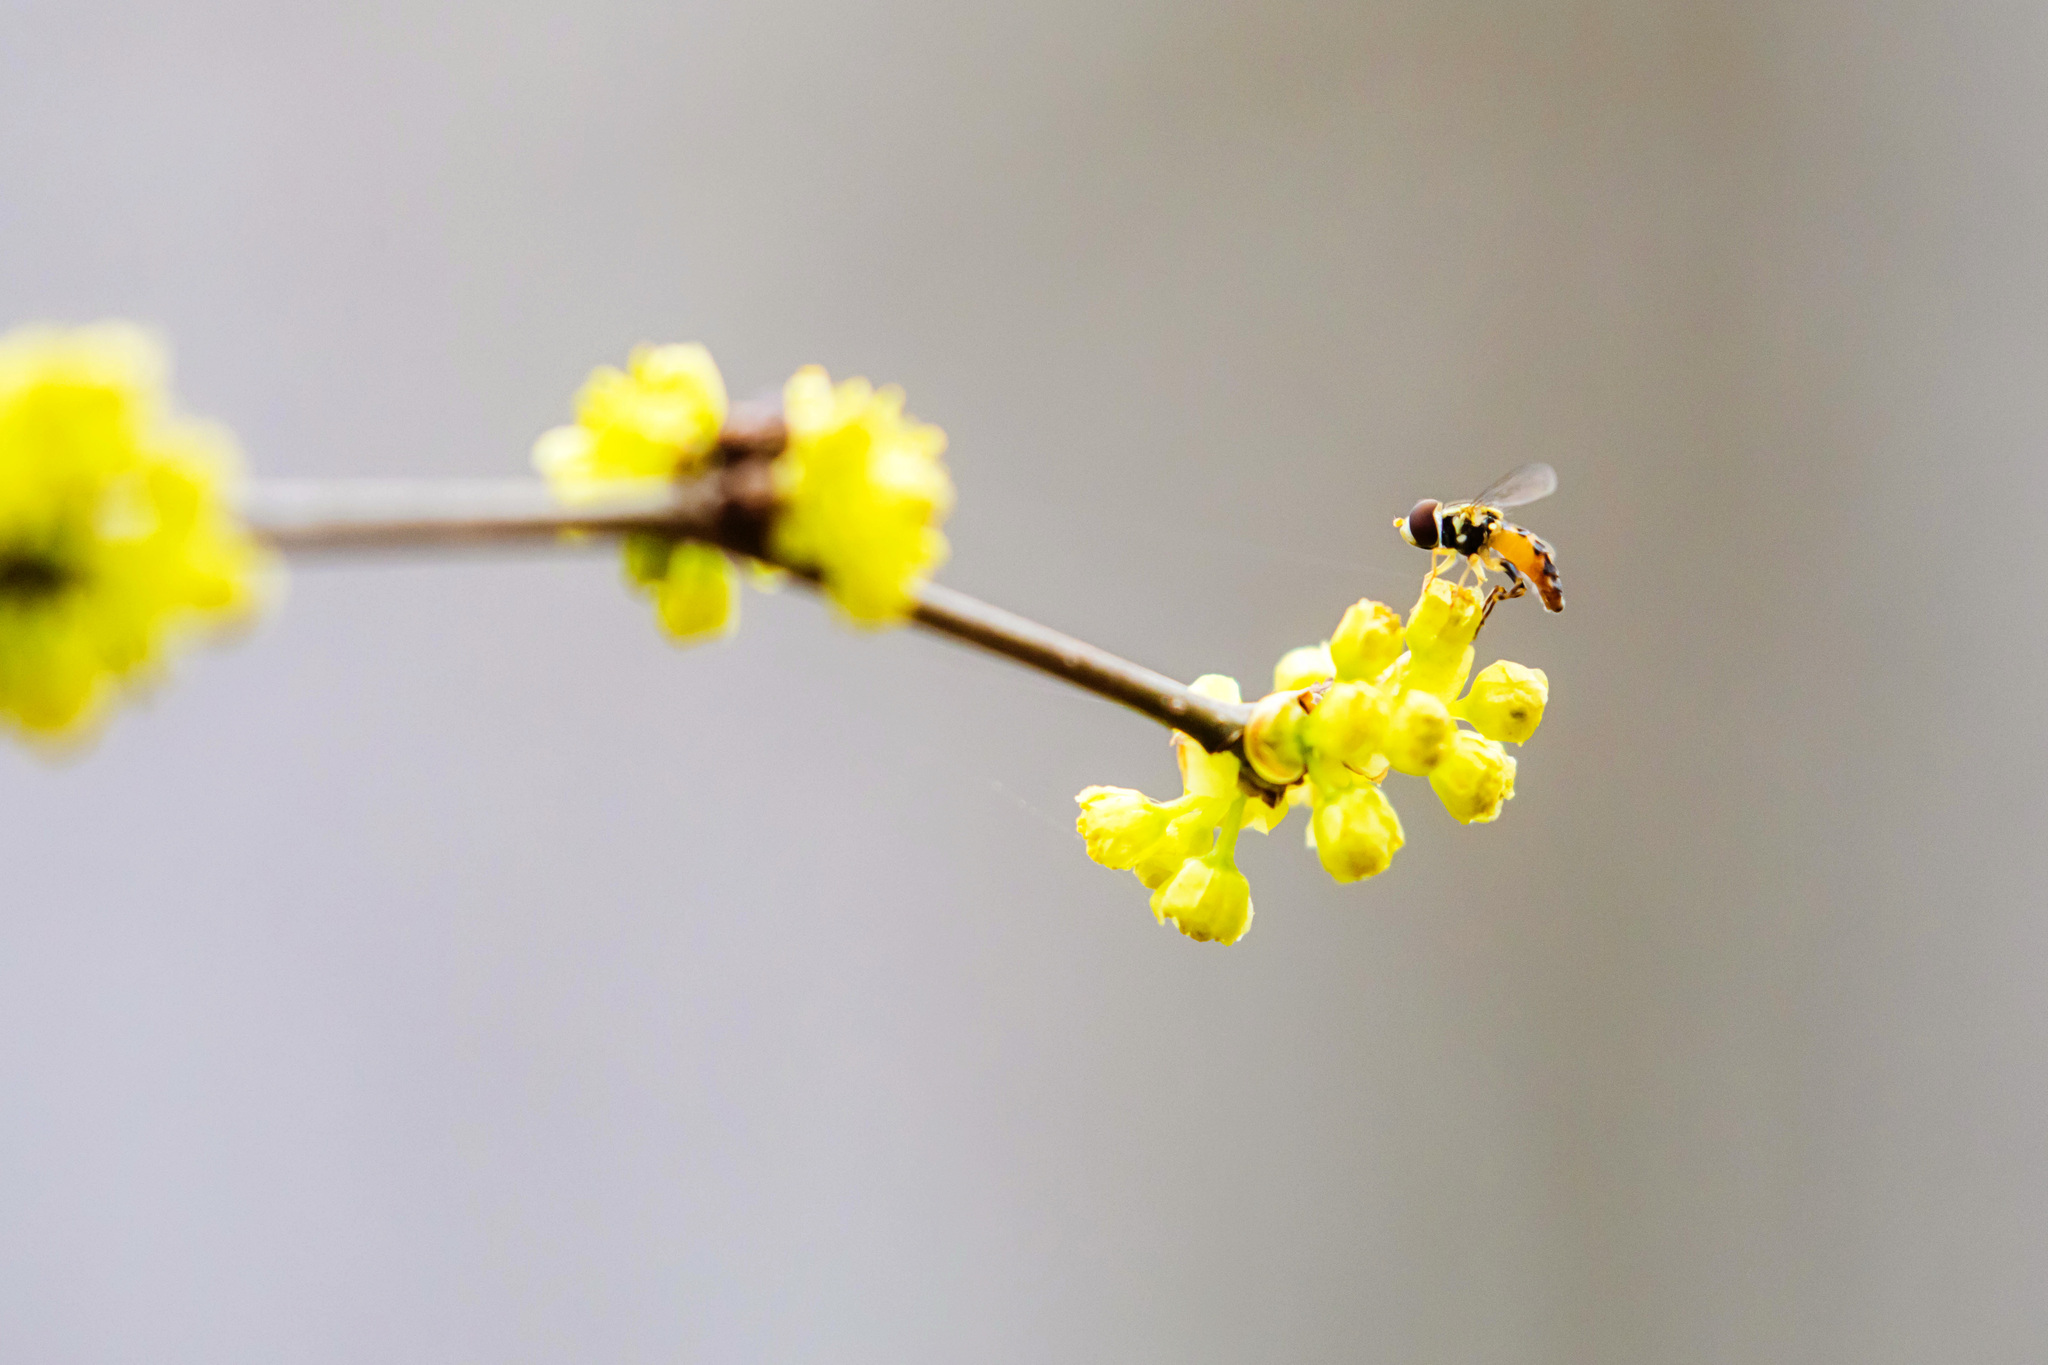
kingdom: Animalia
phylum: Arthropoda
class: Insecta
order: Diptera
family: Syrphidae
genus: Toxomerus
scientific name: Toxomerus geminatus
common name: Eastern calligrapher
